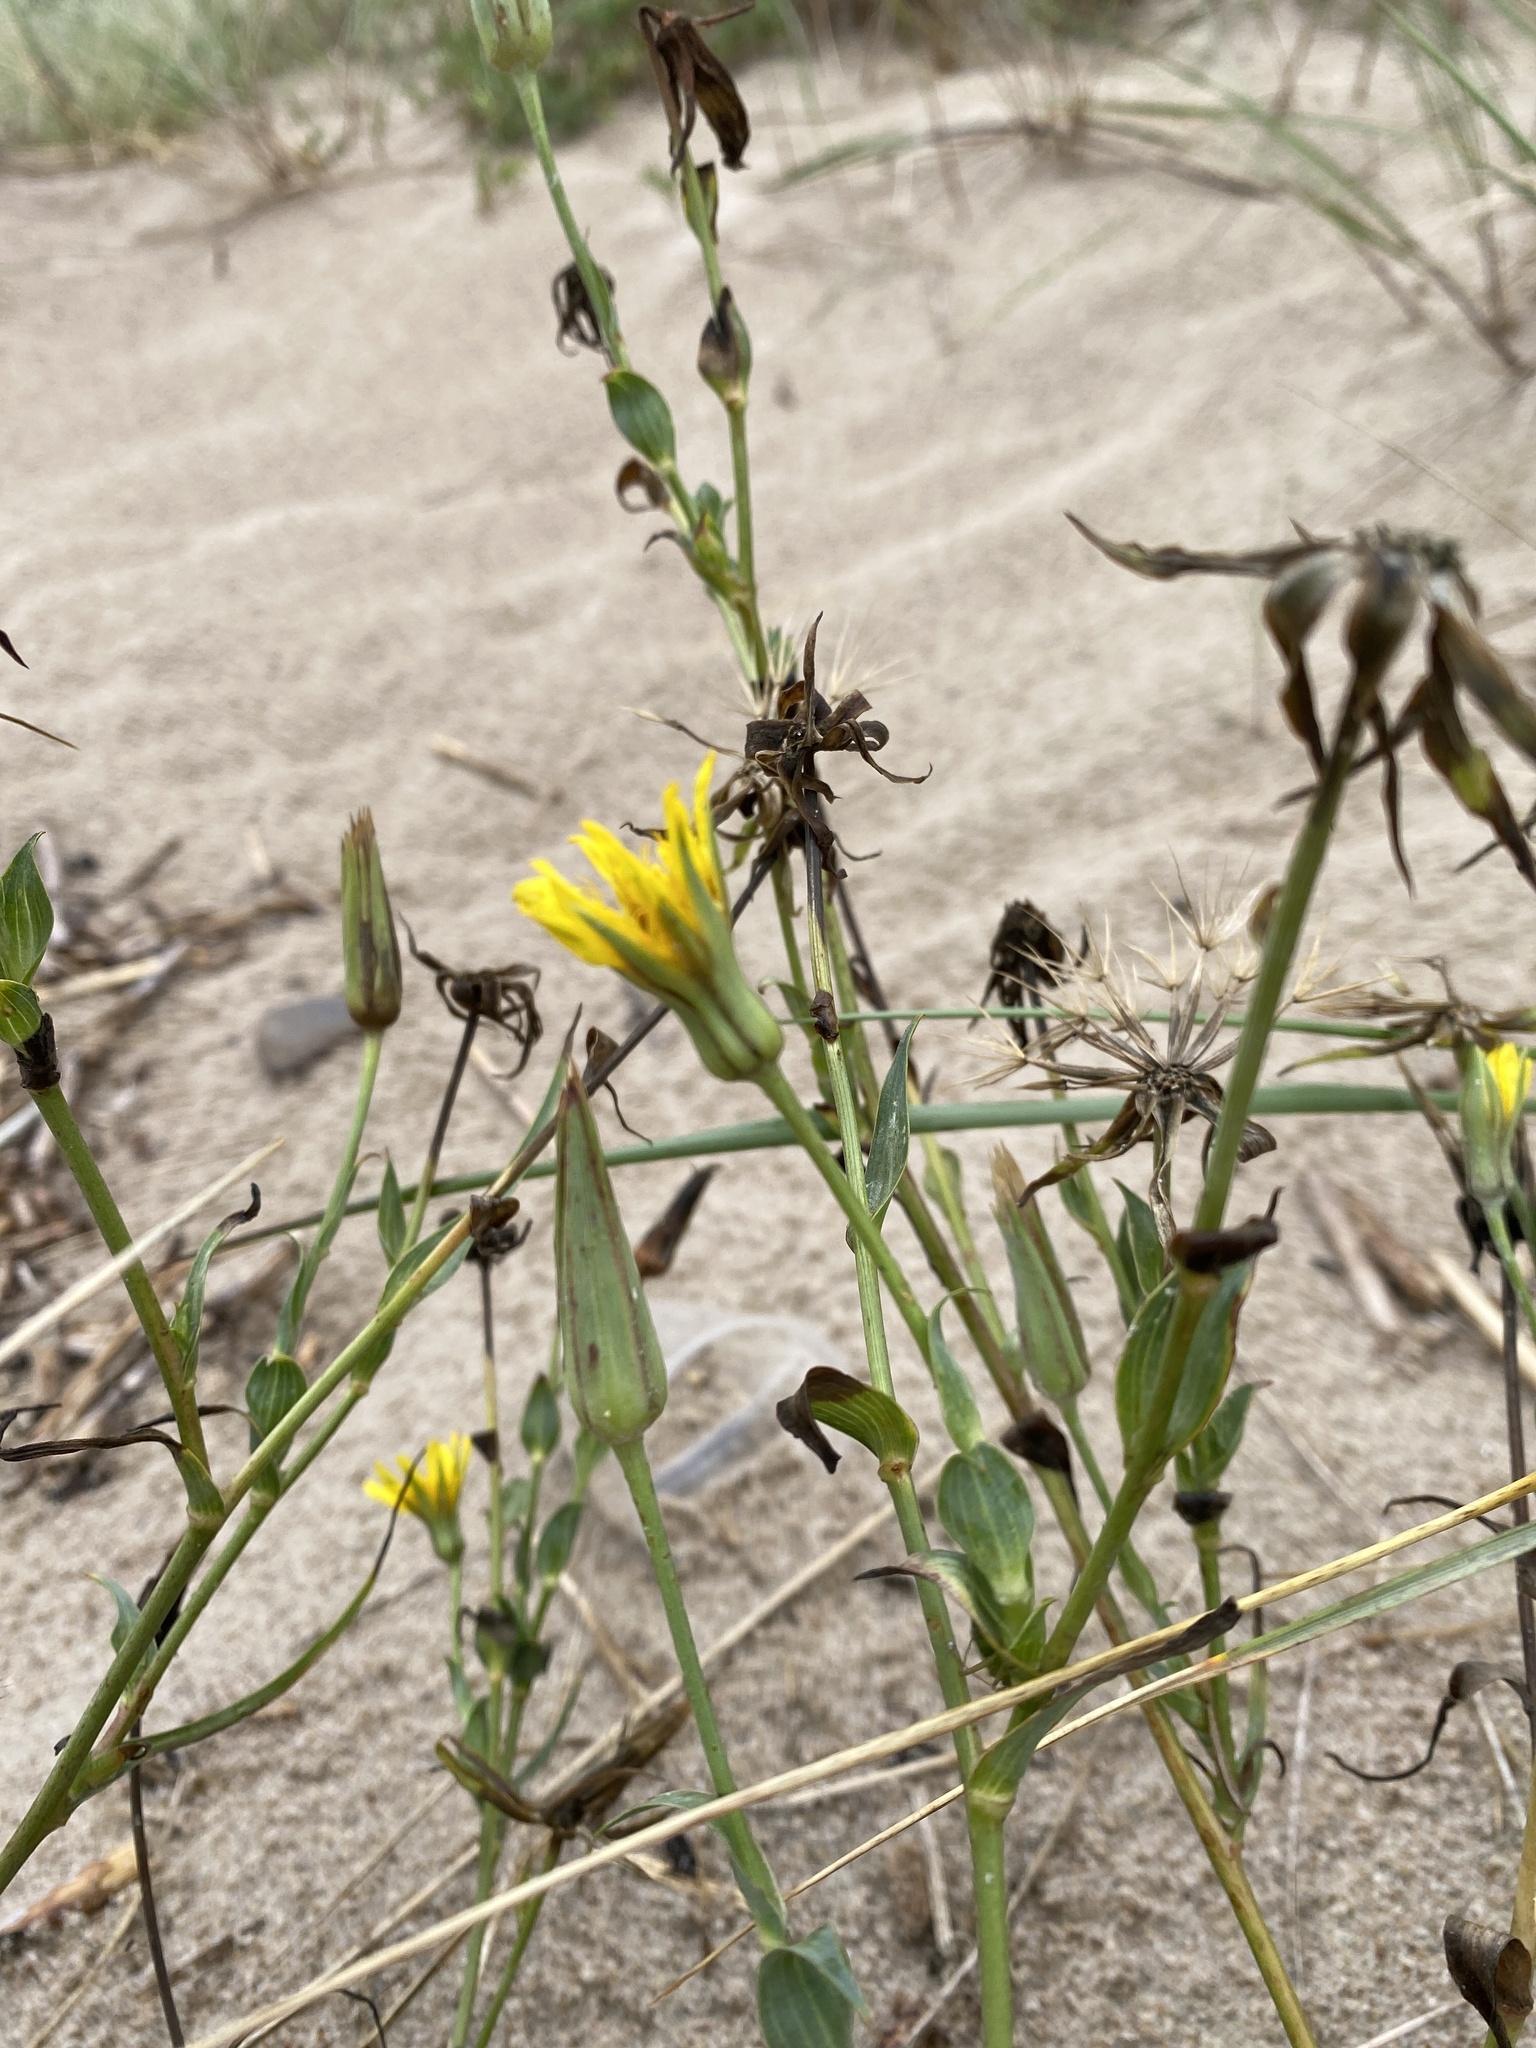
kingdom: Plantae
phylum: Tracheophyta
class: Magnoliopsida
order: Asterales
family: Asteraceae
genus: Tragopogon
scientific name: Tragopogon heterospermus
